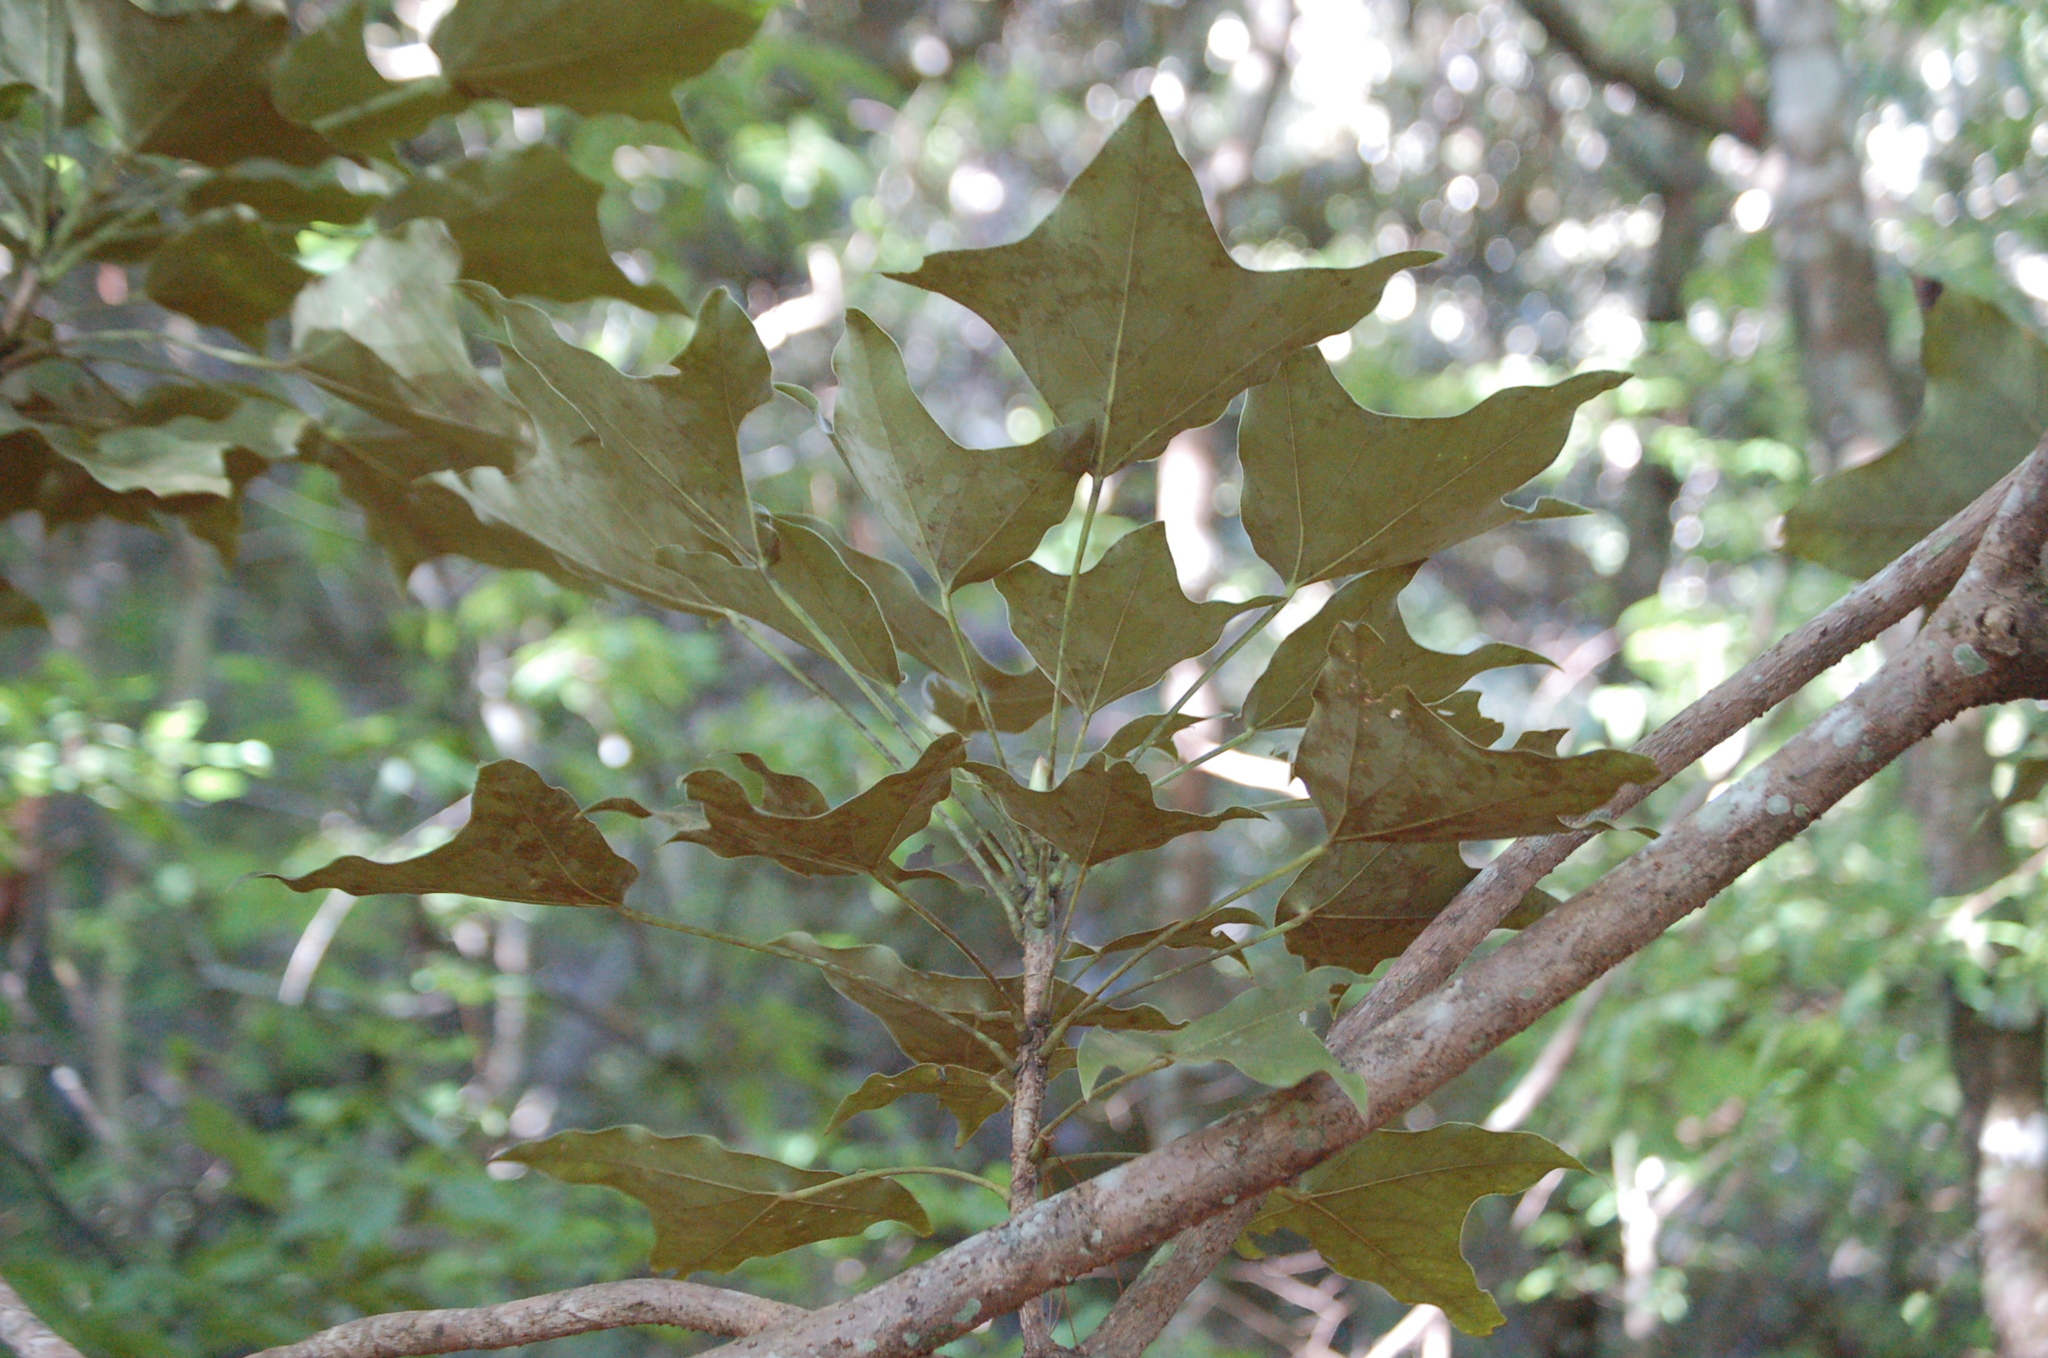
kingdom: Plantae
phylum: Tracheophyta
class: Magnoliopsida
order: Apiales
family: Araliaceae
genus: Oreopanax
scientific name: Oreopanax sanderianus
